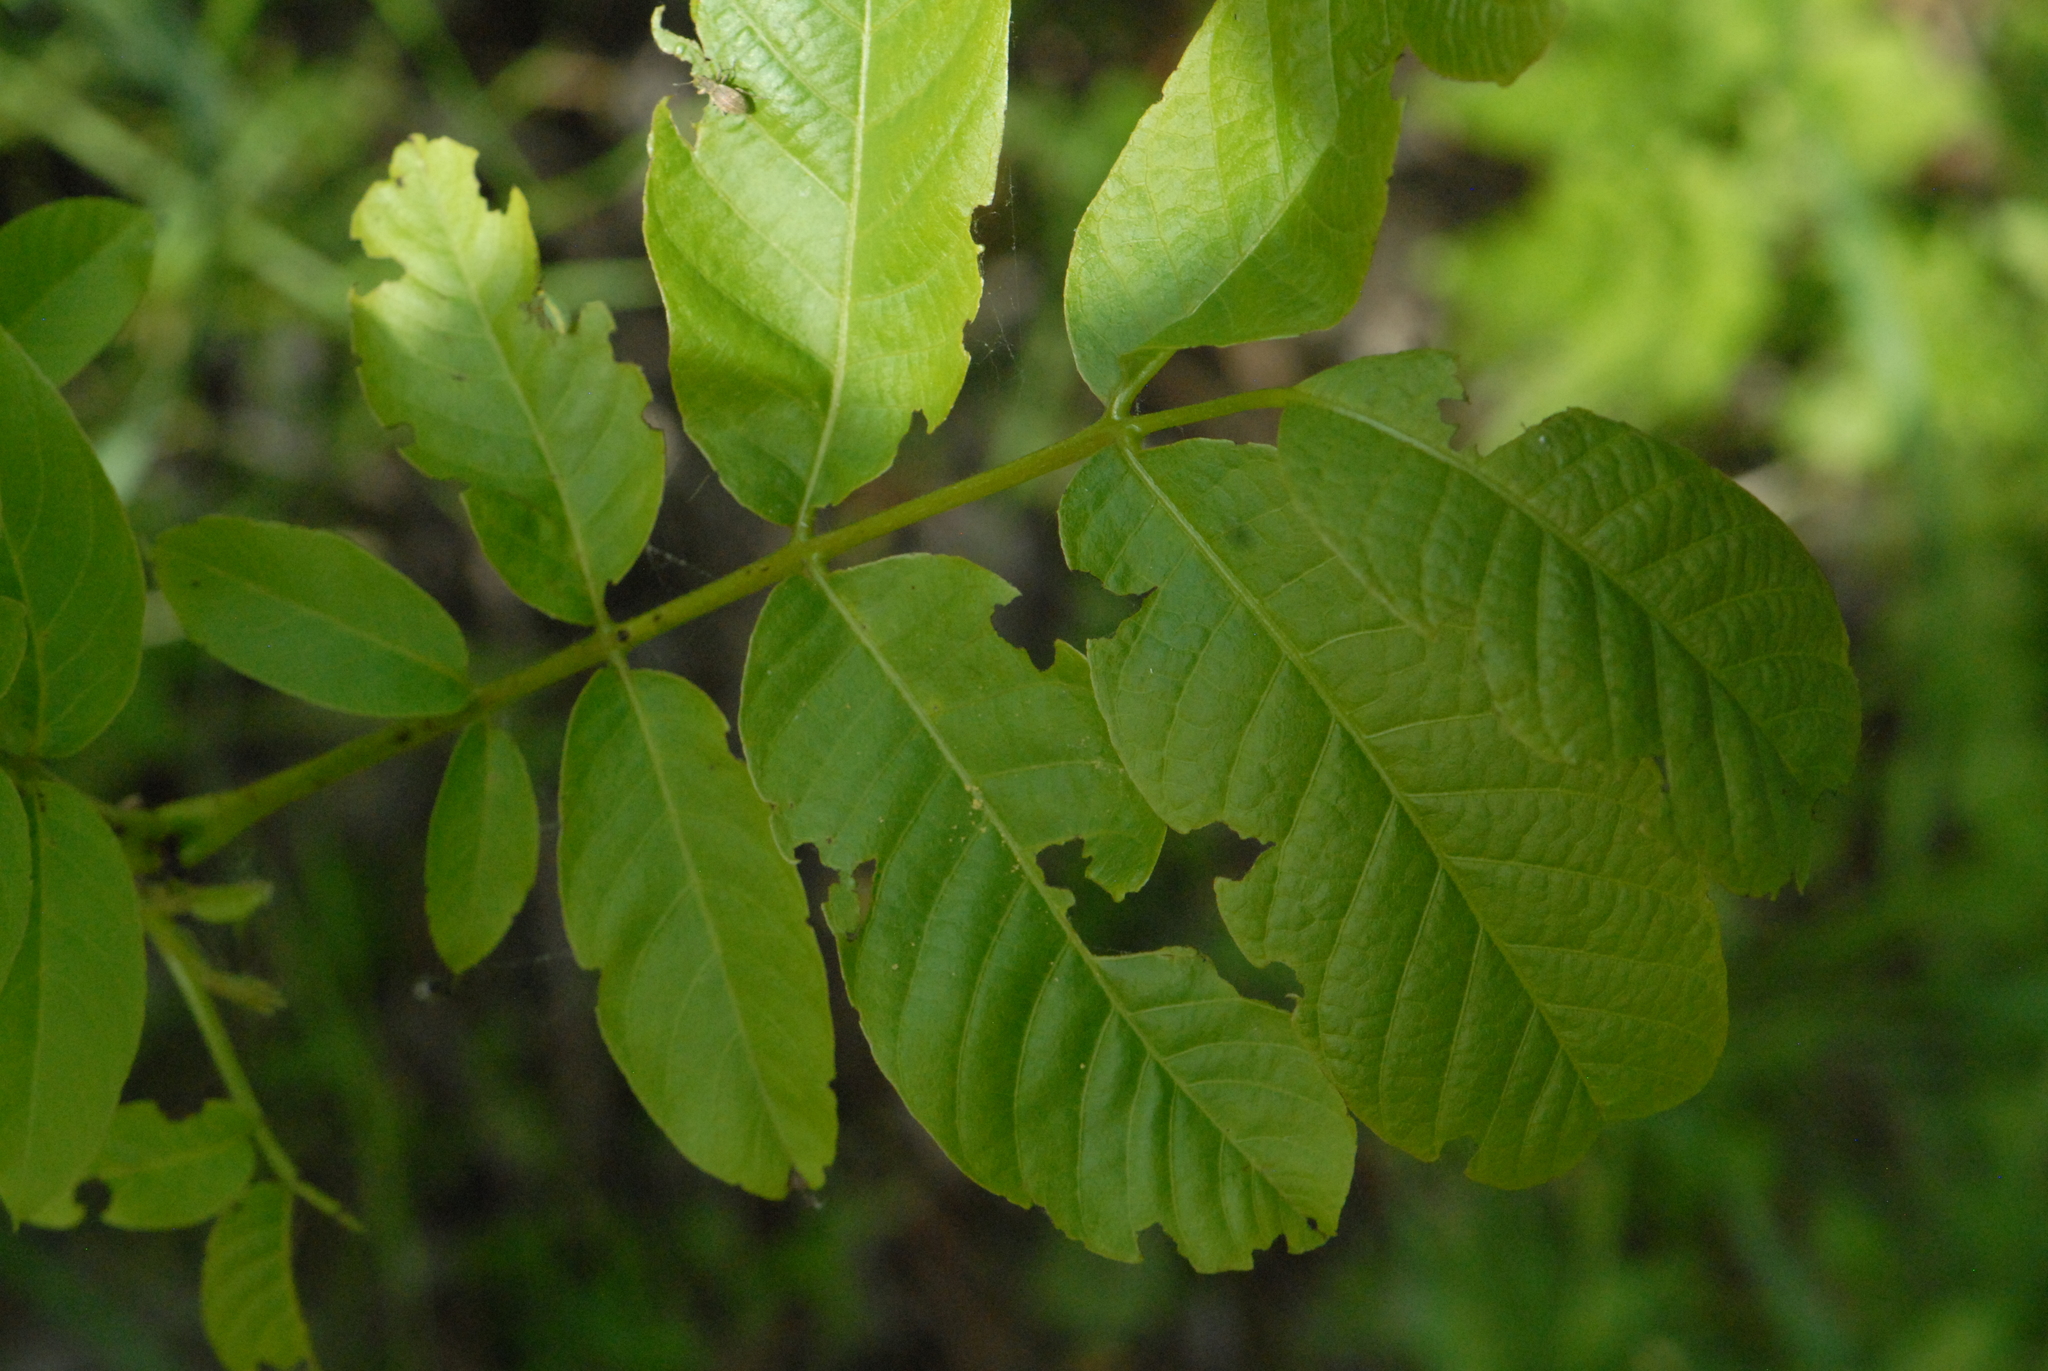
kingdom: Plantae
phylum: Tracheophyta
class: Magnoliopsida
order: Fagales
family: Juglandaceae
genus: Juglans
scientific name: Juglans regia
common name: Walnut
